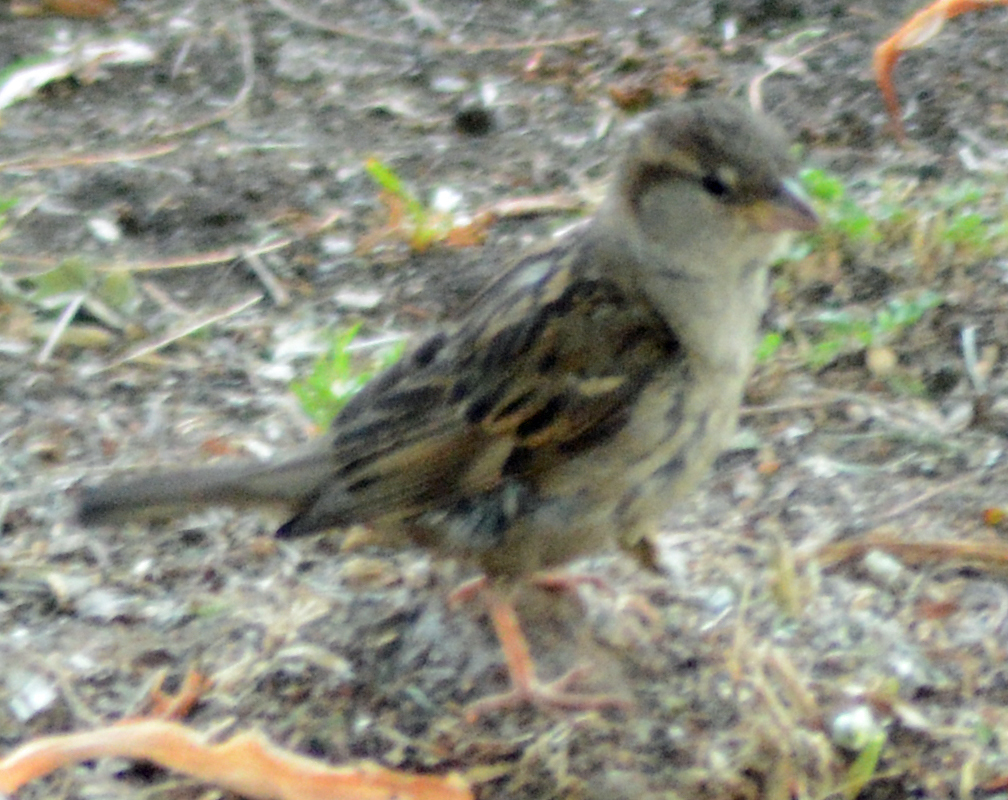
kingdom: Animalia
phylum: Chordata
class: Aves
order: Passeriformes
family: Passeridae
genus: Passer
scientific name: Passer domesticus
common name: House sparrow
